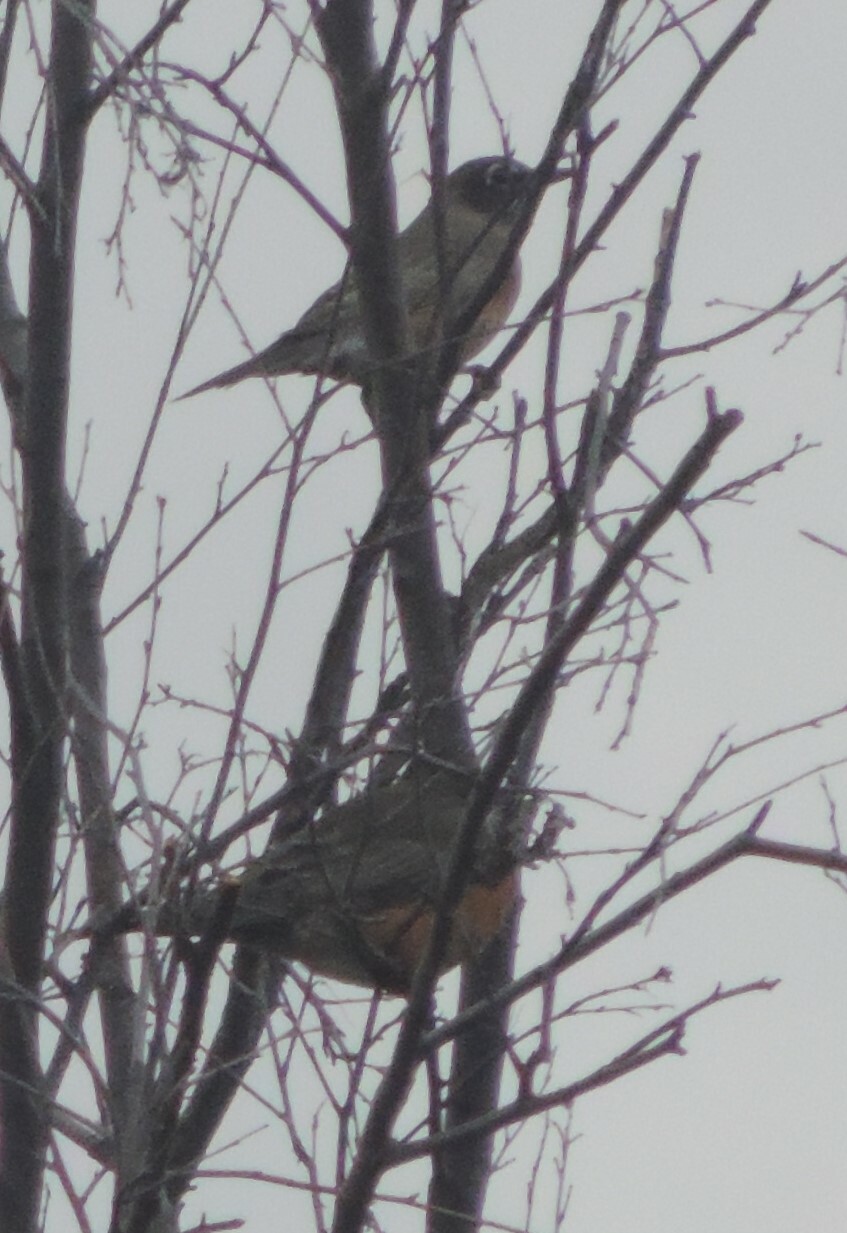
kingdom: Animalia
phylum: Chordata
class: Aves
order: Passeriformes
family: Turdidae
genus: Turdus
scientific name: Turdus migratorius
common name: American robin
